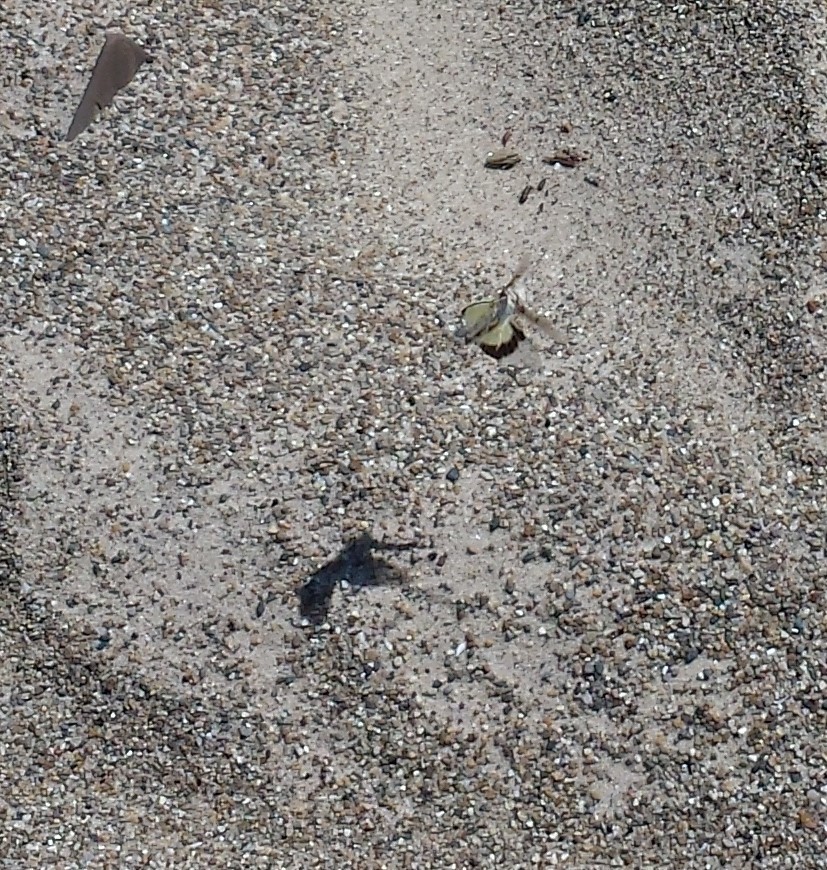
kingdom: Animalia
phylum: Arthropoda
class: Insecta
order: Orthoptera
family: Acrididae
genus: Trimerotropis
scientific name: Trimerotropis maritima
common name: Seaside locust
